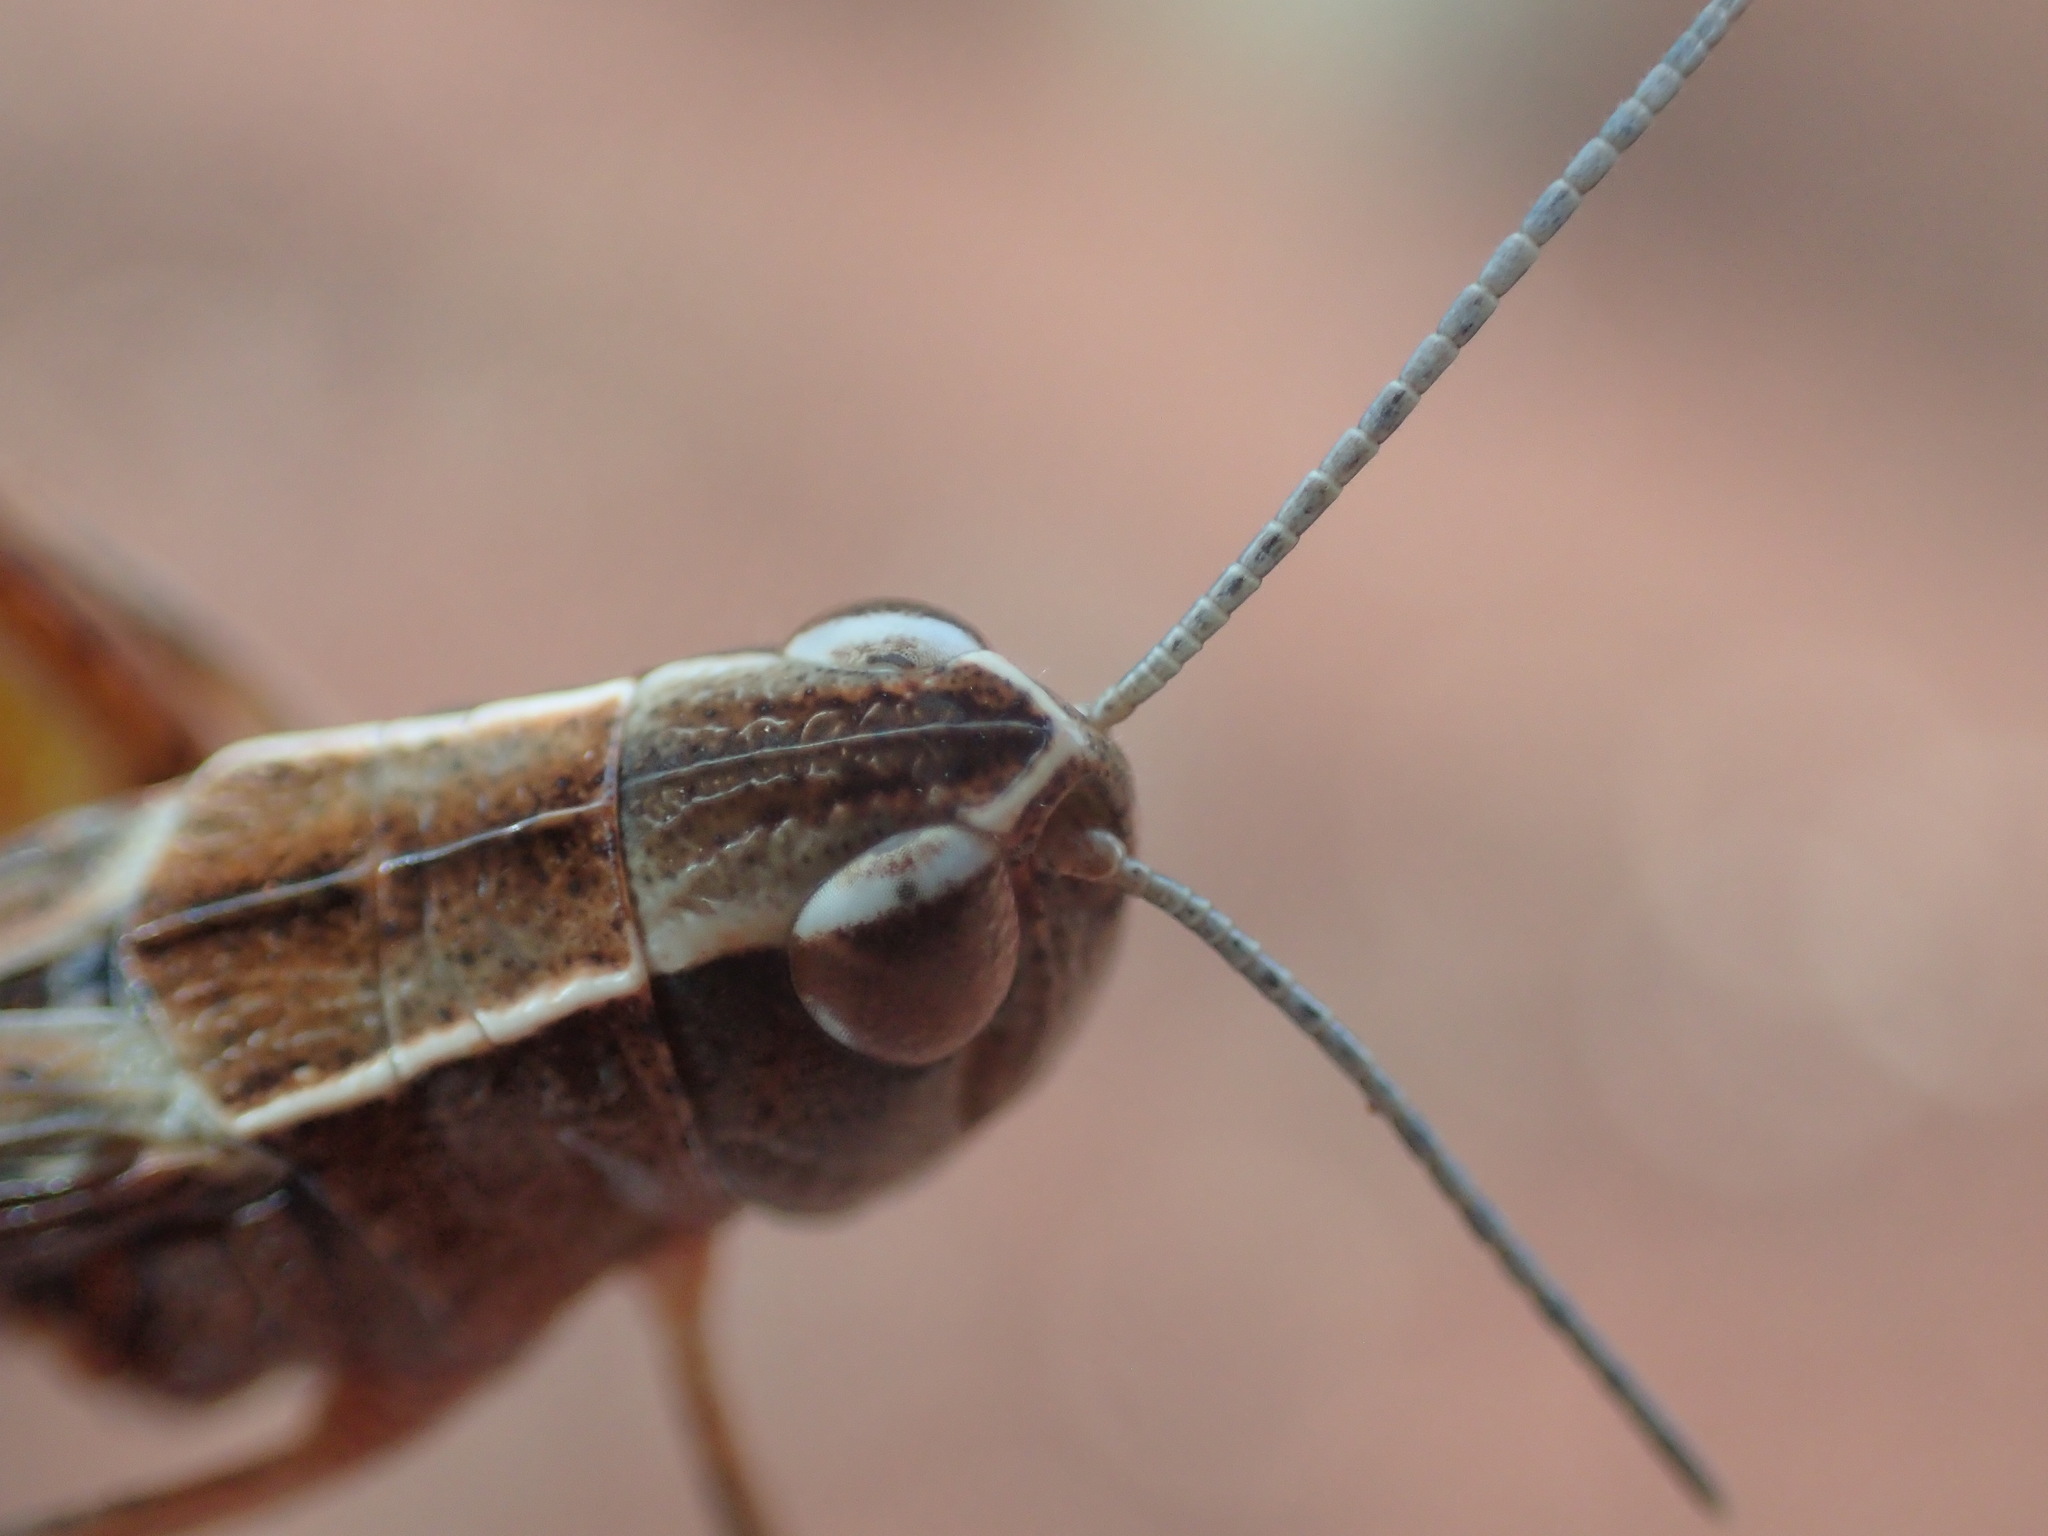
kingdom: Animalia
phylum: Arthropoda
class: Insecta
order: Orthoptera
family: Acrididae
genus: Azelota
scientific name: Azelota
